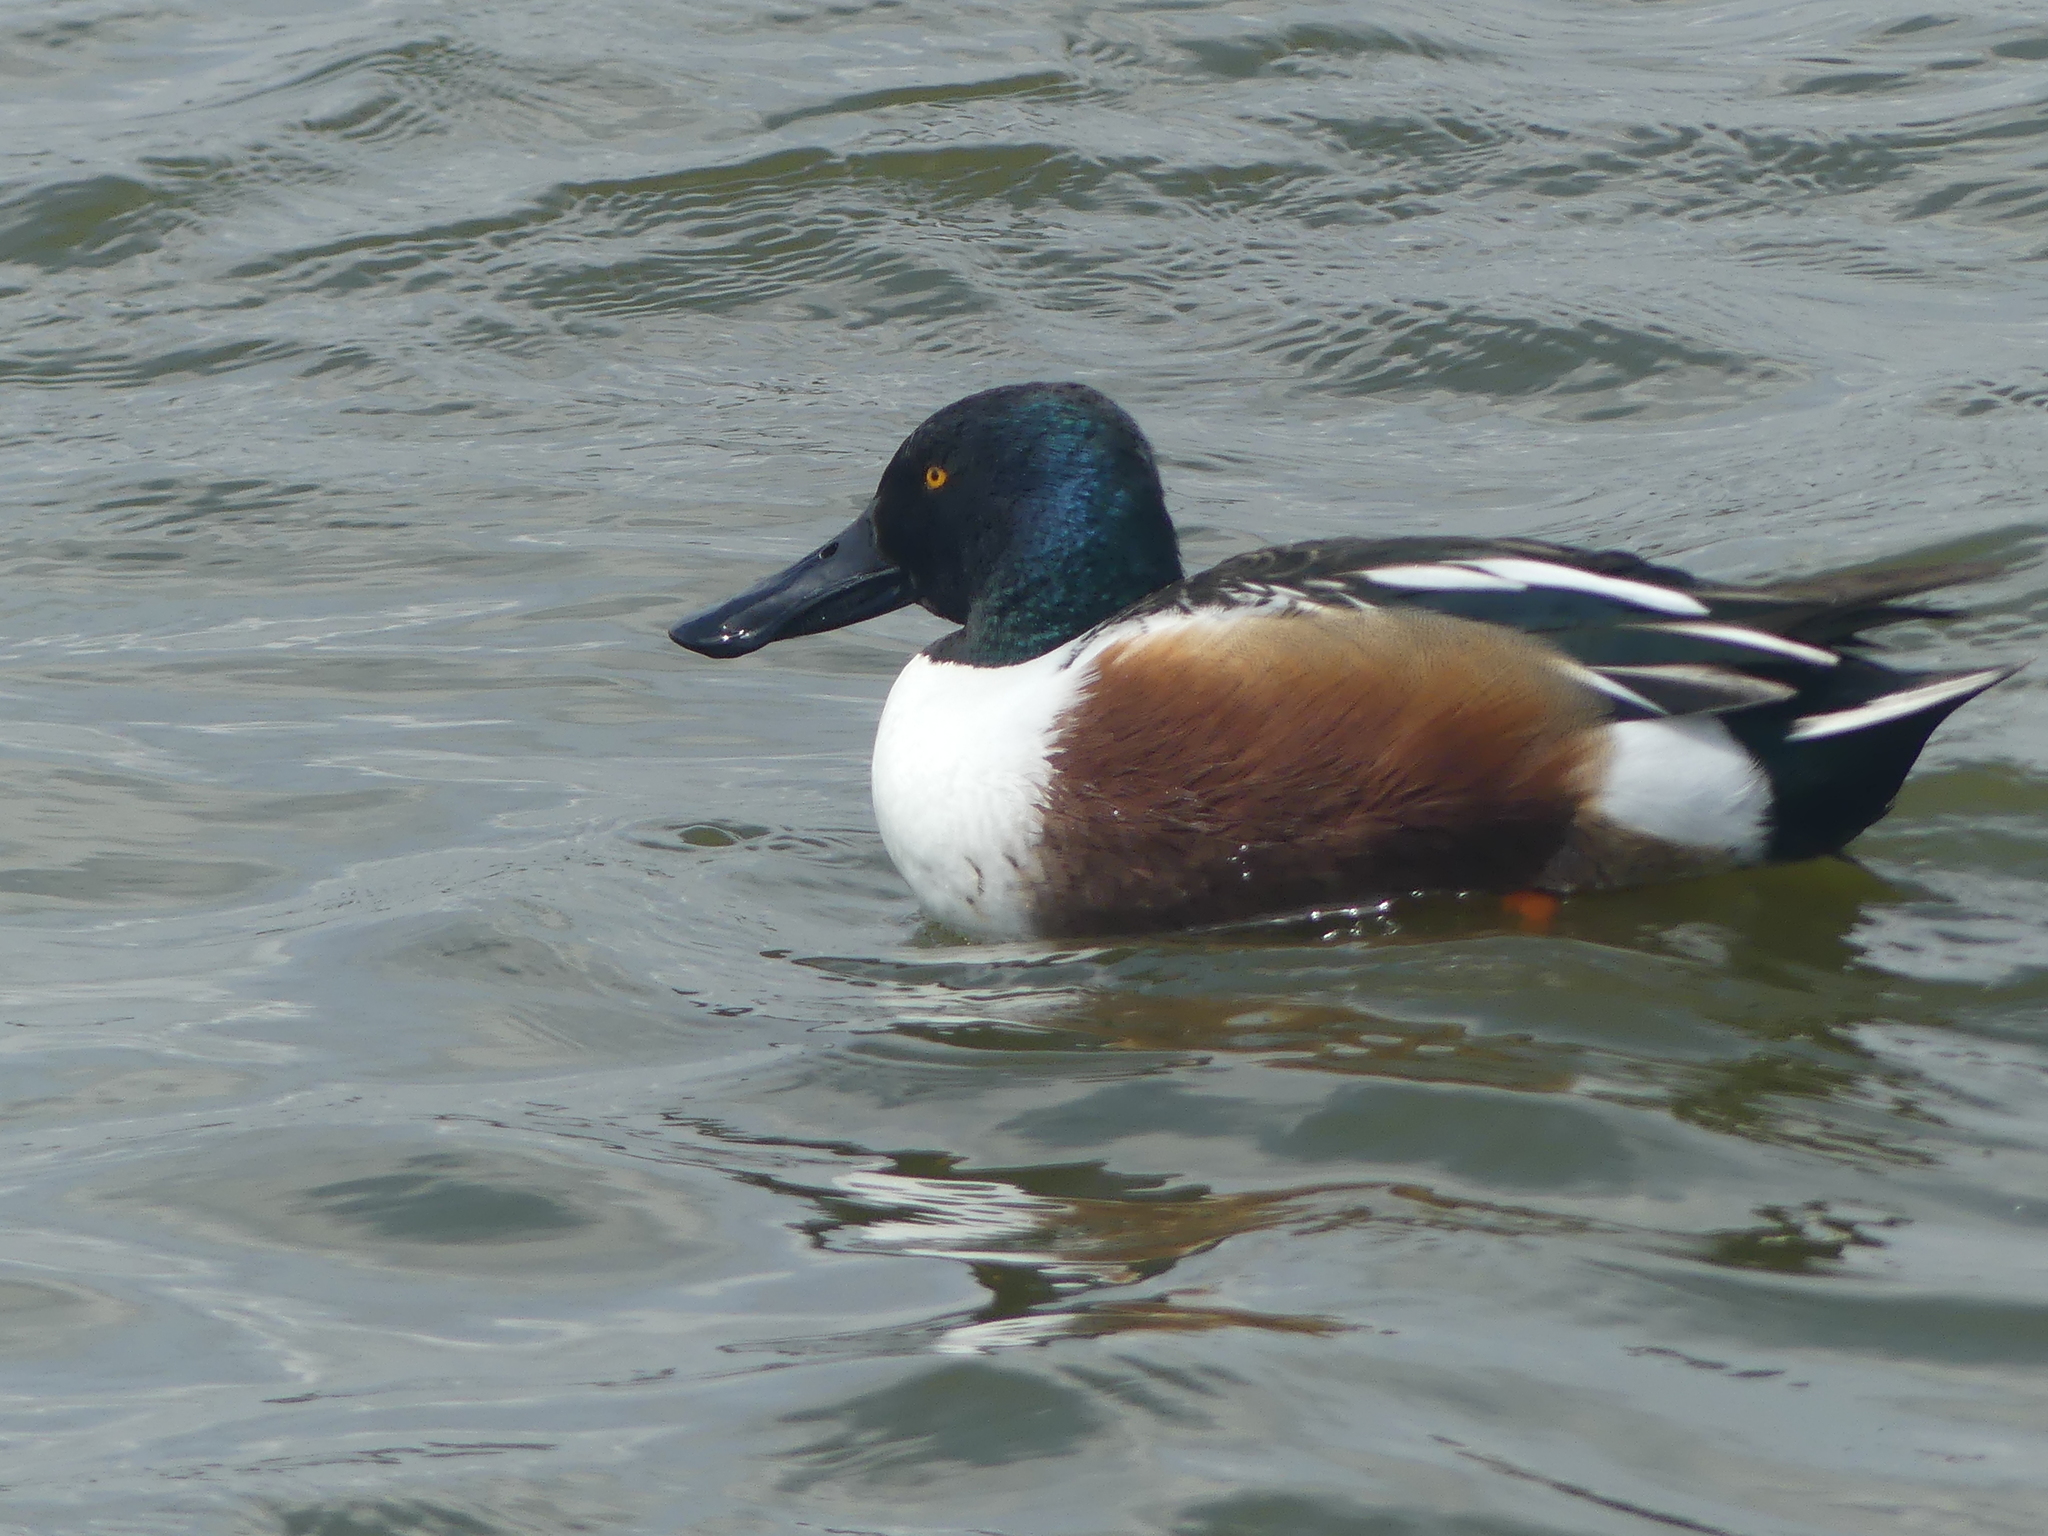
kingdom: Animalia
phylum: Chordata
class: Aves
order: Anseriformes
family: Anatidae
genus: Spatula
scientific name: Spatula clypeata
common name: Northern shoveler
